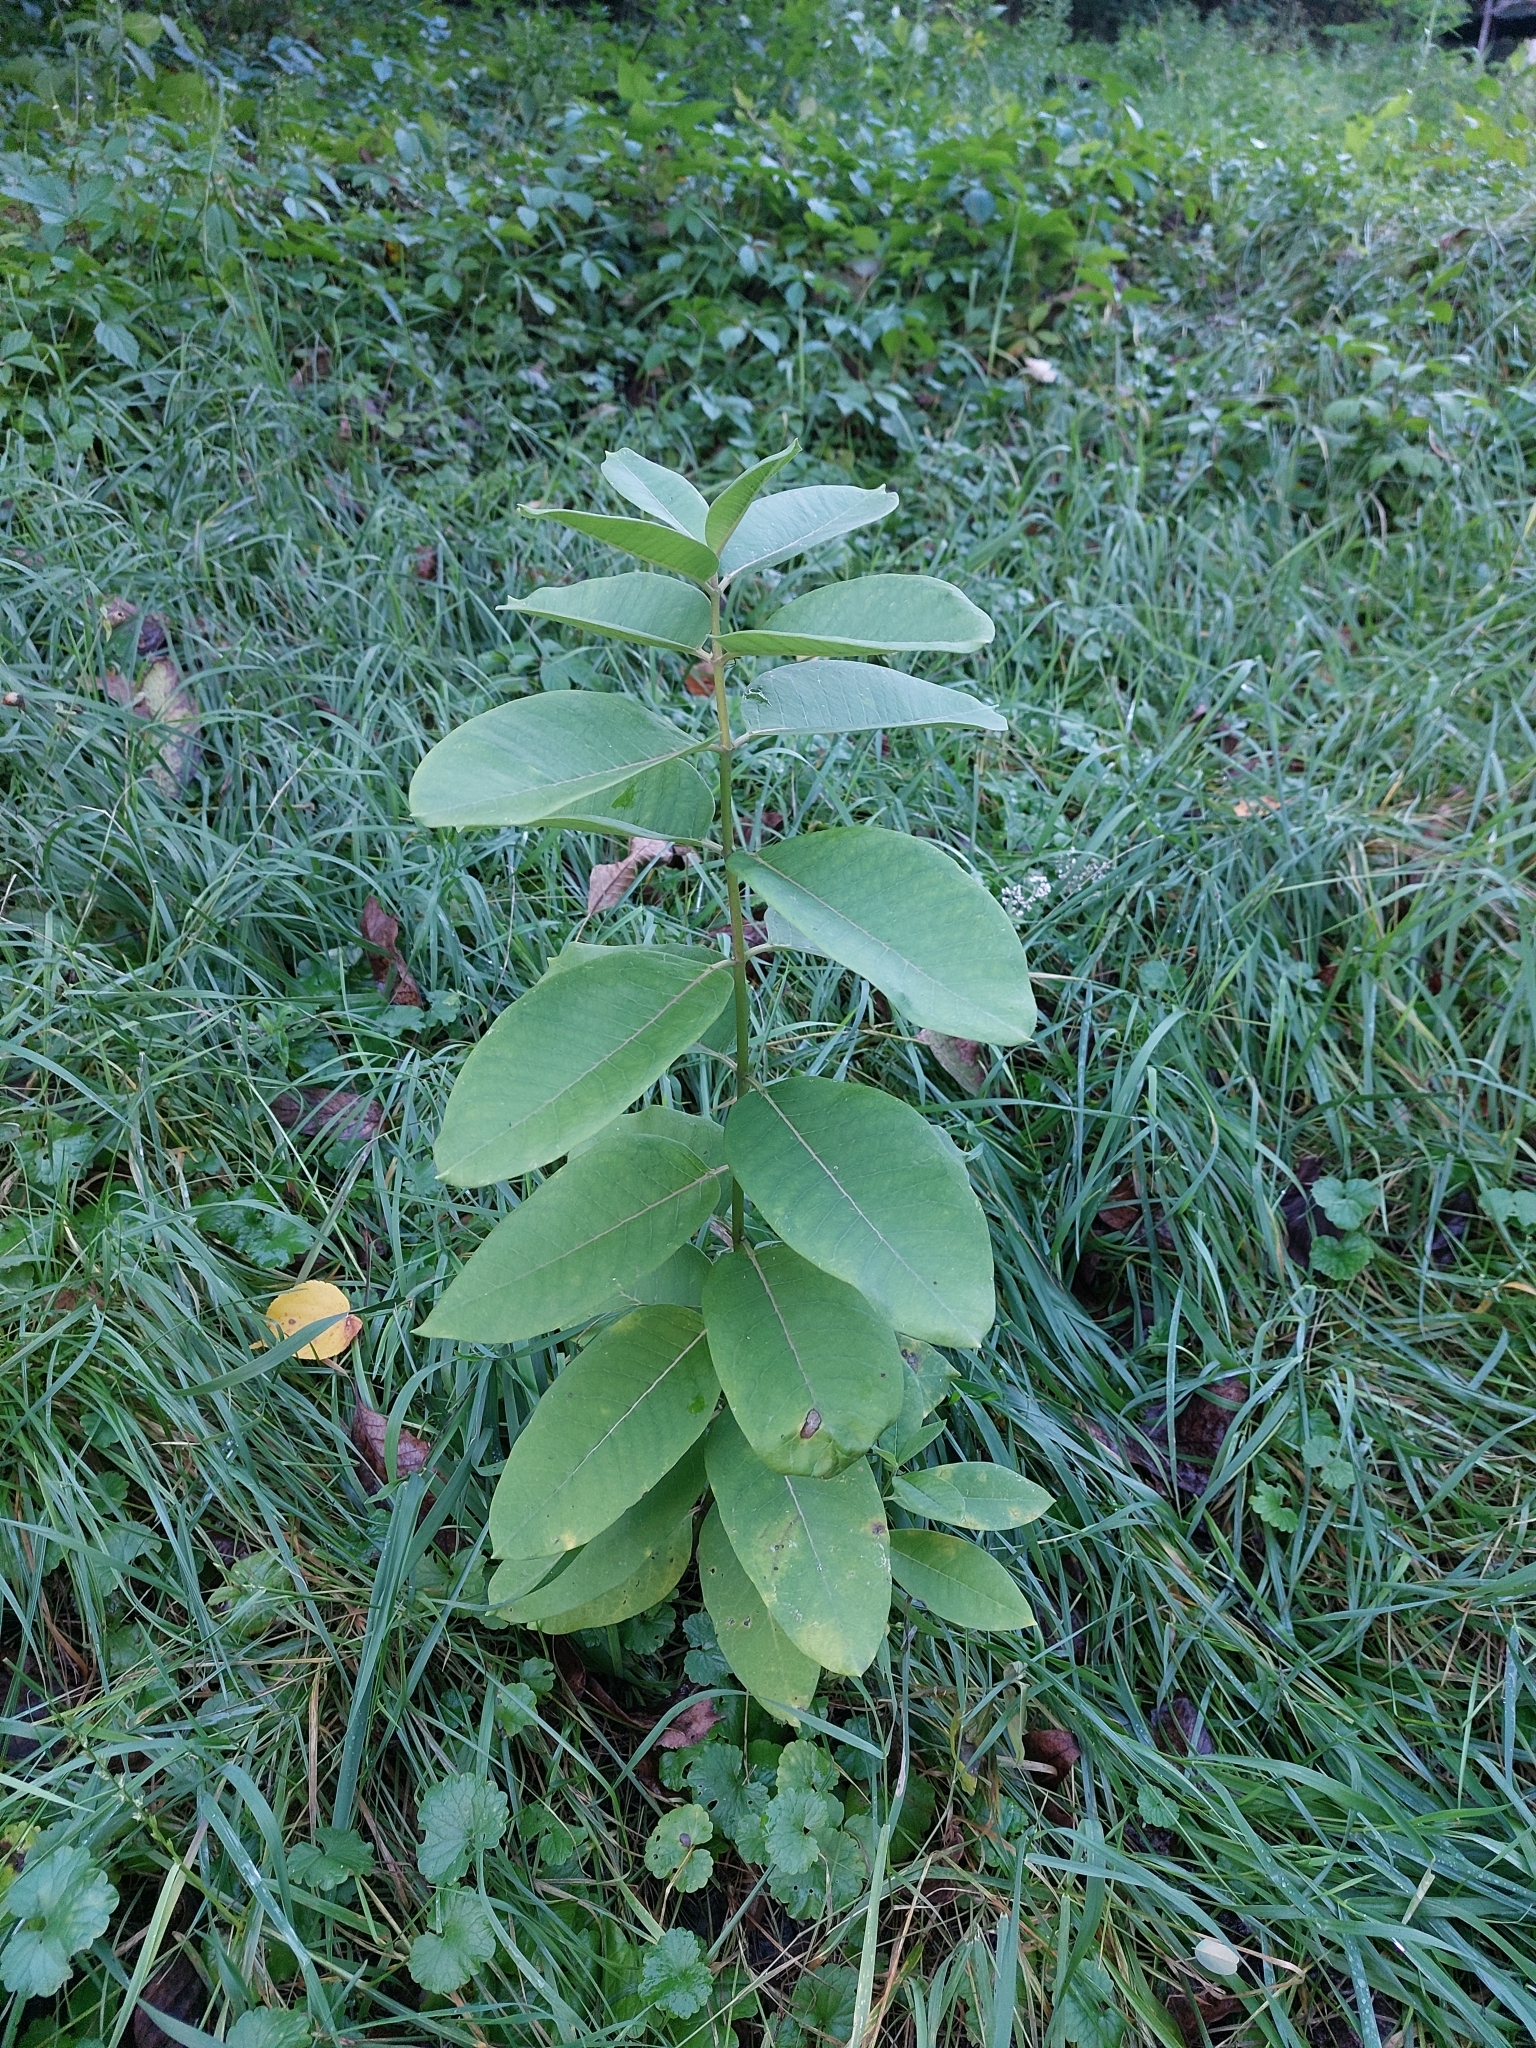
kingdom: Plantae
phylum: Tracheophyta
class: Magnoliopsida
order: Gentianales
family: Apocynaceae
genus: Asclepias
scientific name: Asclepias syriaca
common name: Common milkweed
